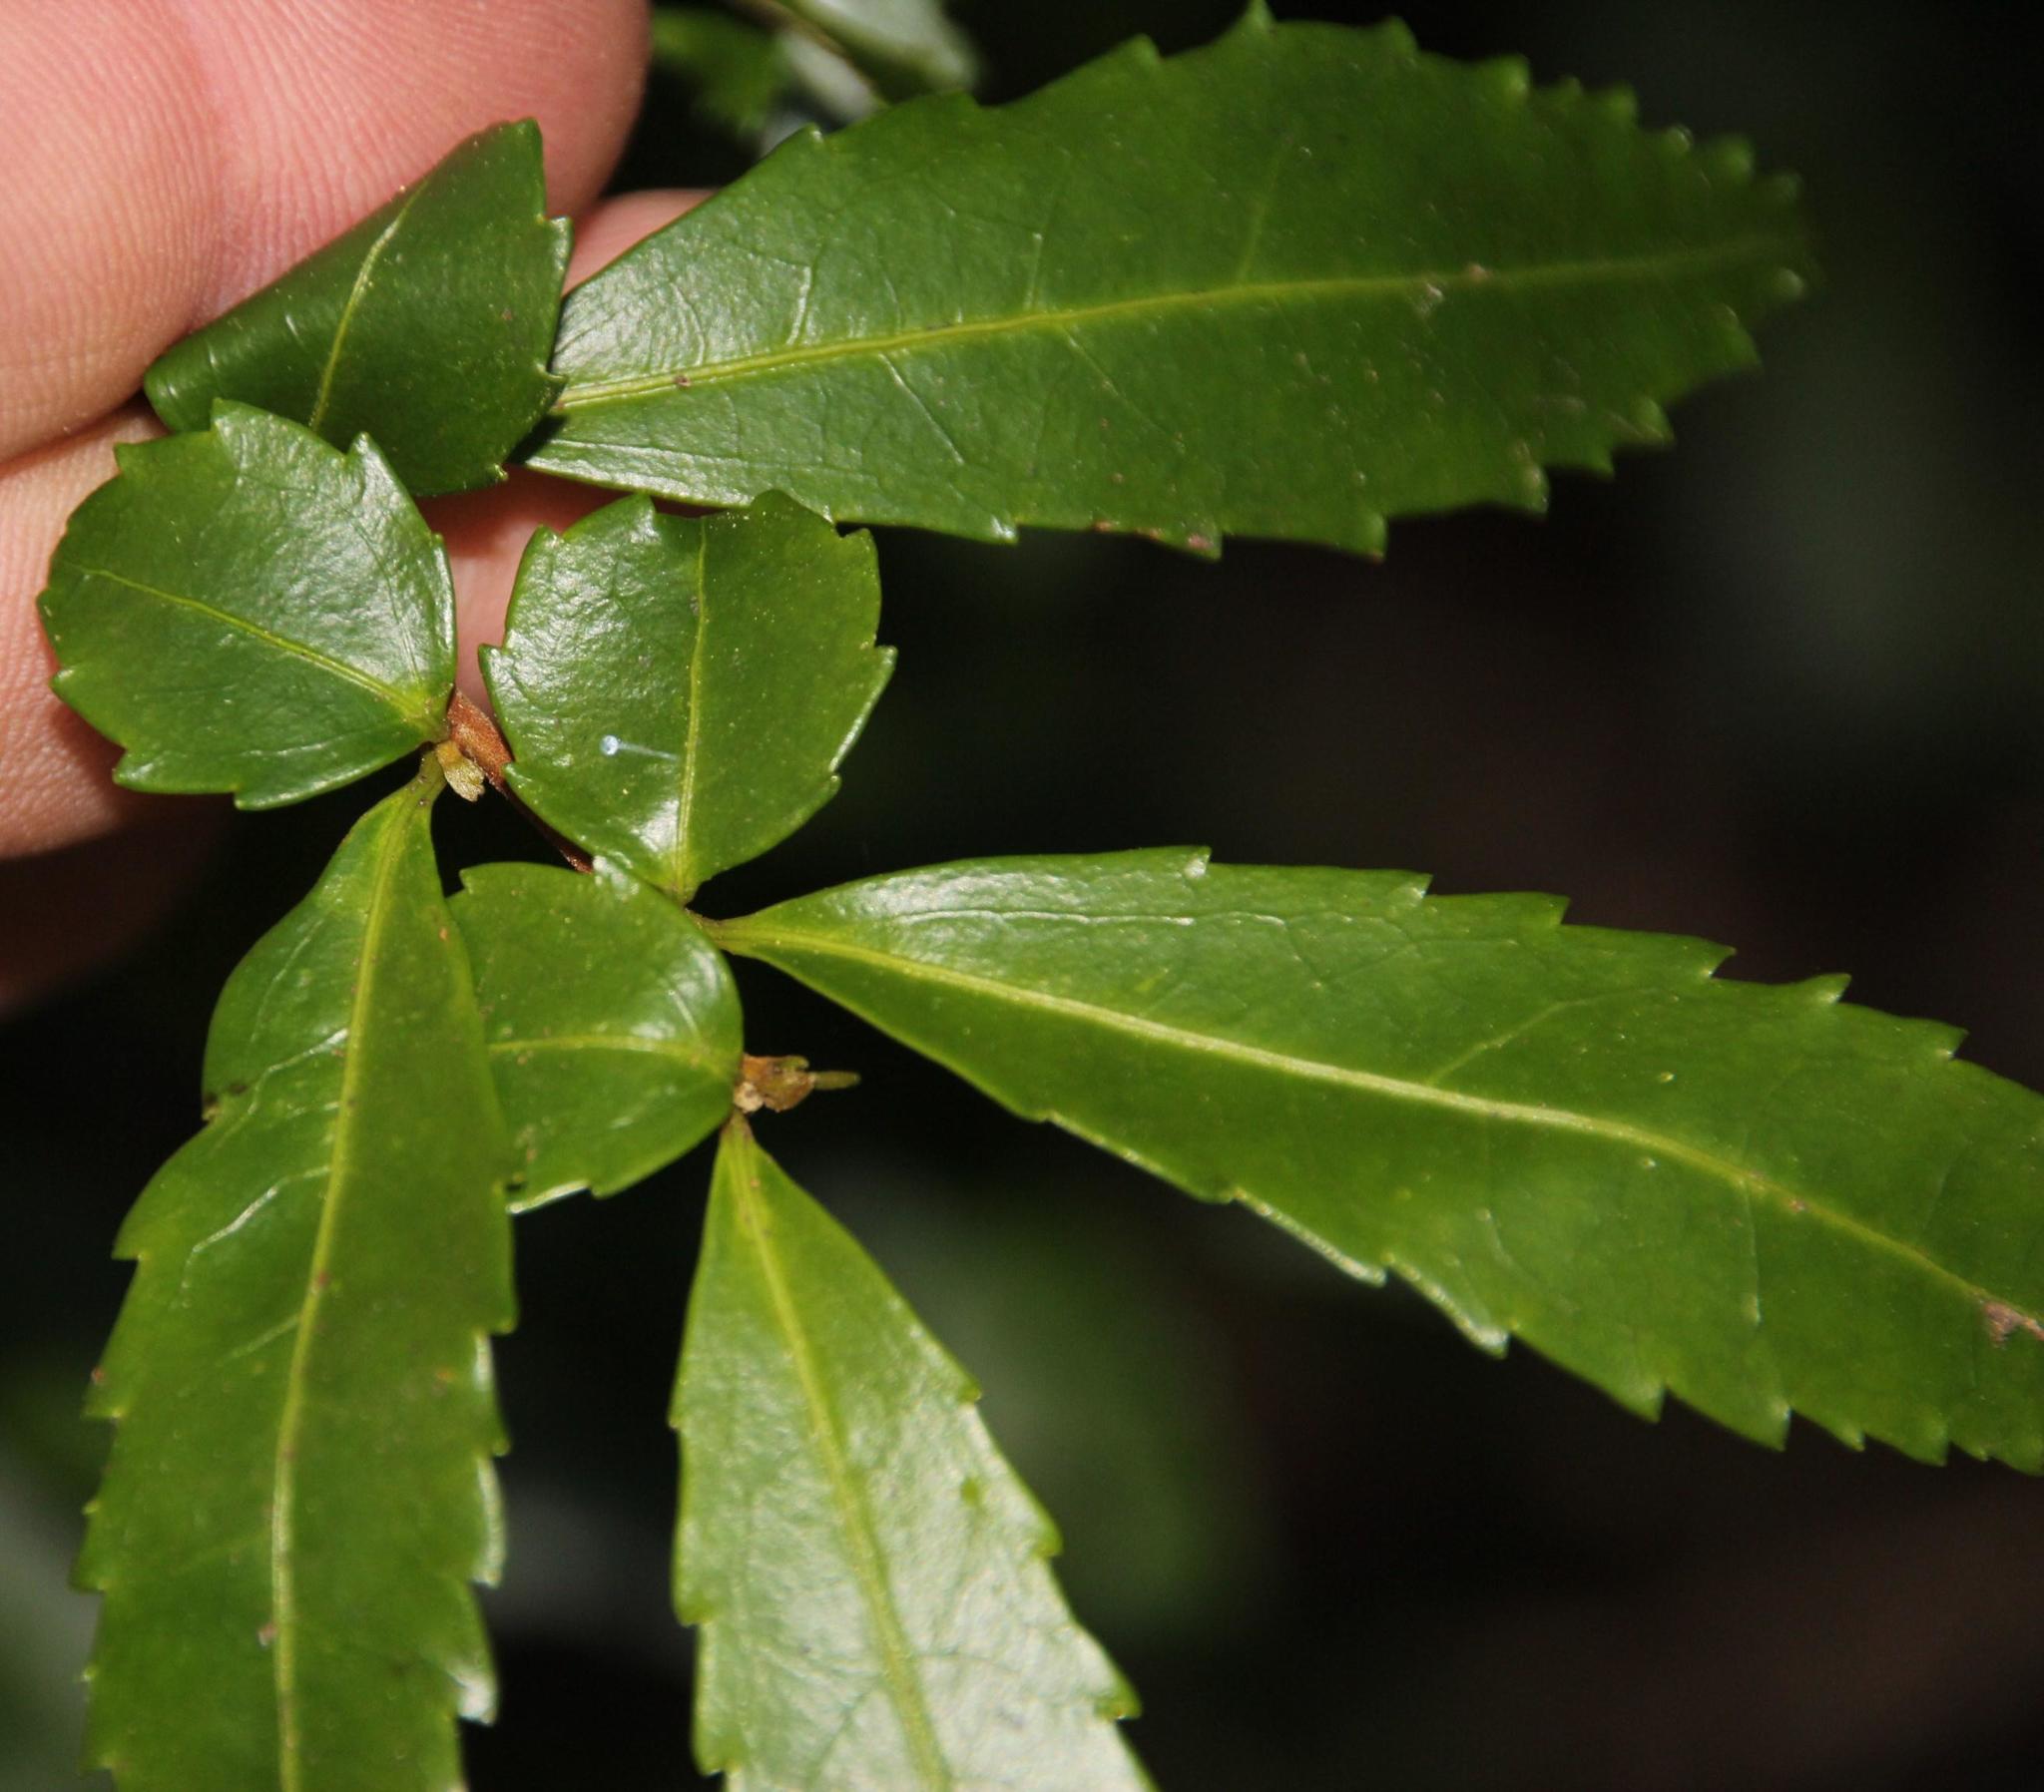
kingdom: Plantae
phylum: Tracheophyta
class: Magnoliopsida
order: Malpighiales
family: Salicaceae
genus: Azara
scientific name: Azara lanceolata
